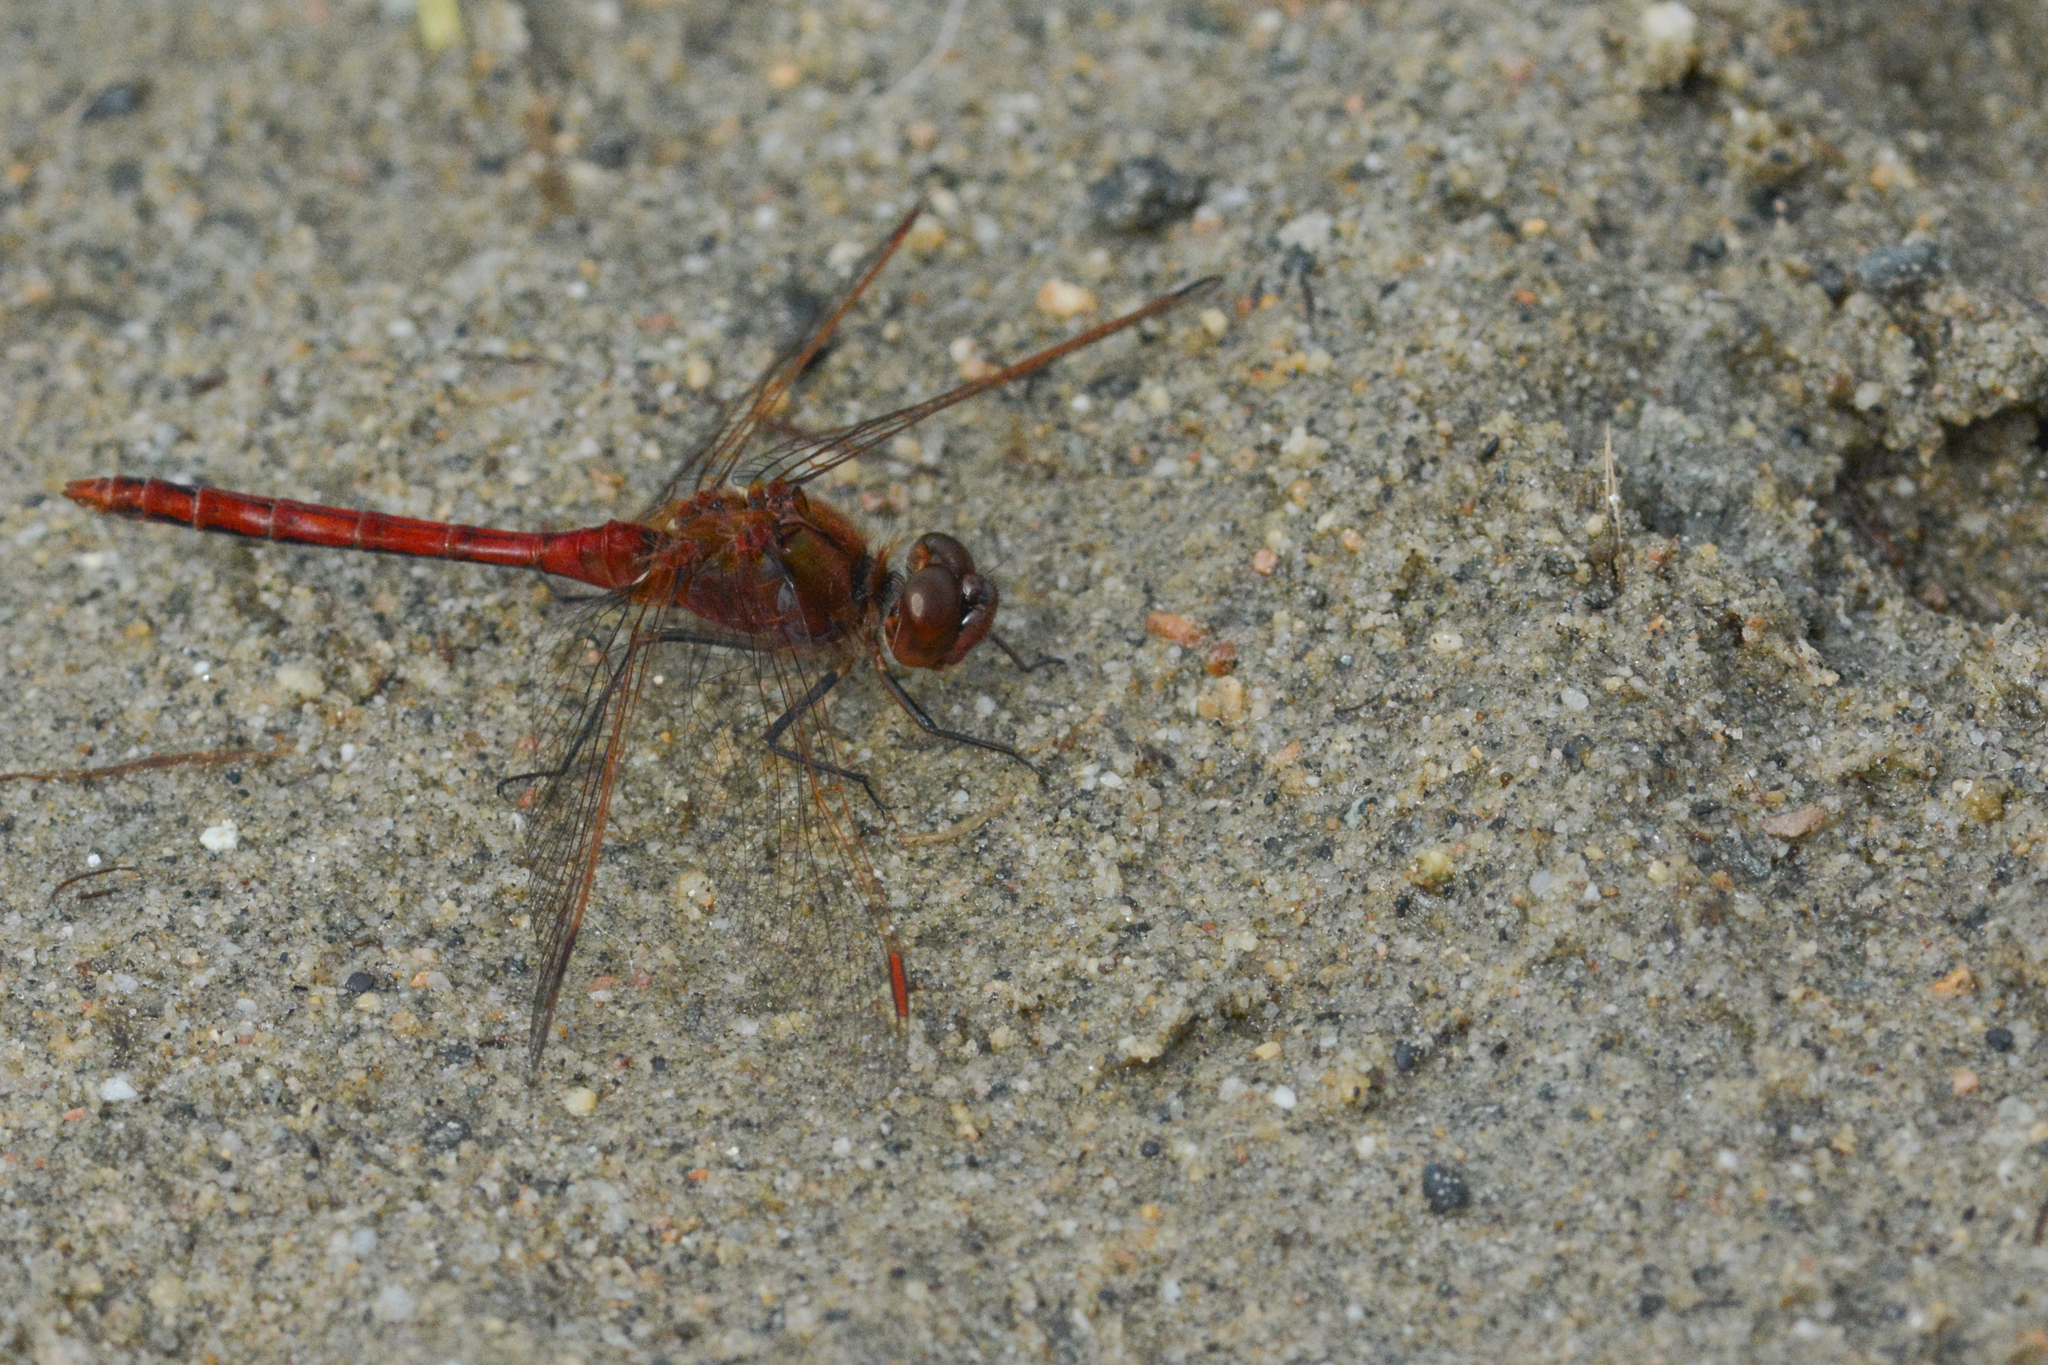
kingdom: Animalia
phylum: Arthropoda
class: Insecta
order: Odonata
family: Libellulidae
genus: Sympetrum
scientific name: Sympetrum costiferum
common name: Saffron-winged meadowhawk
